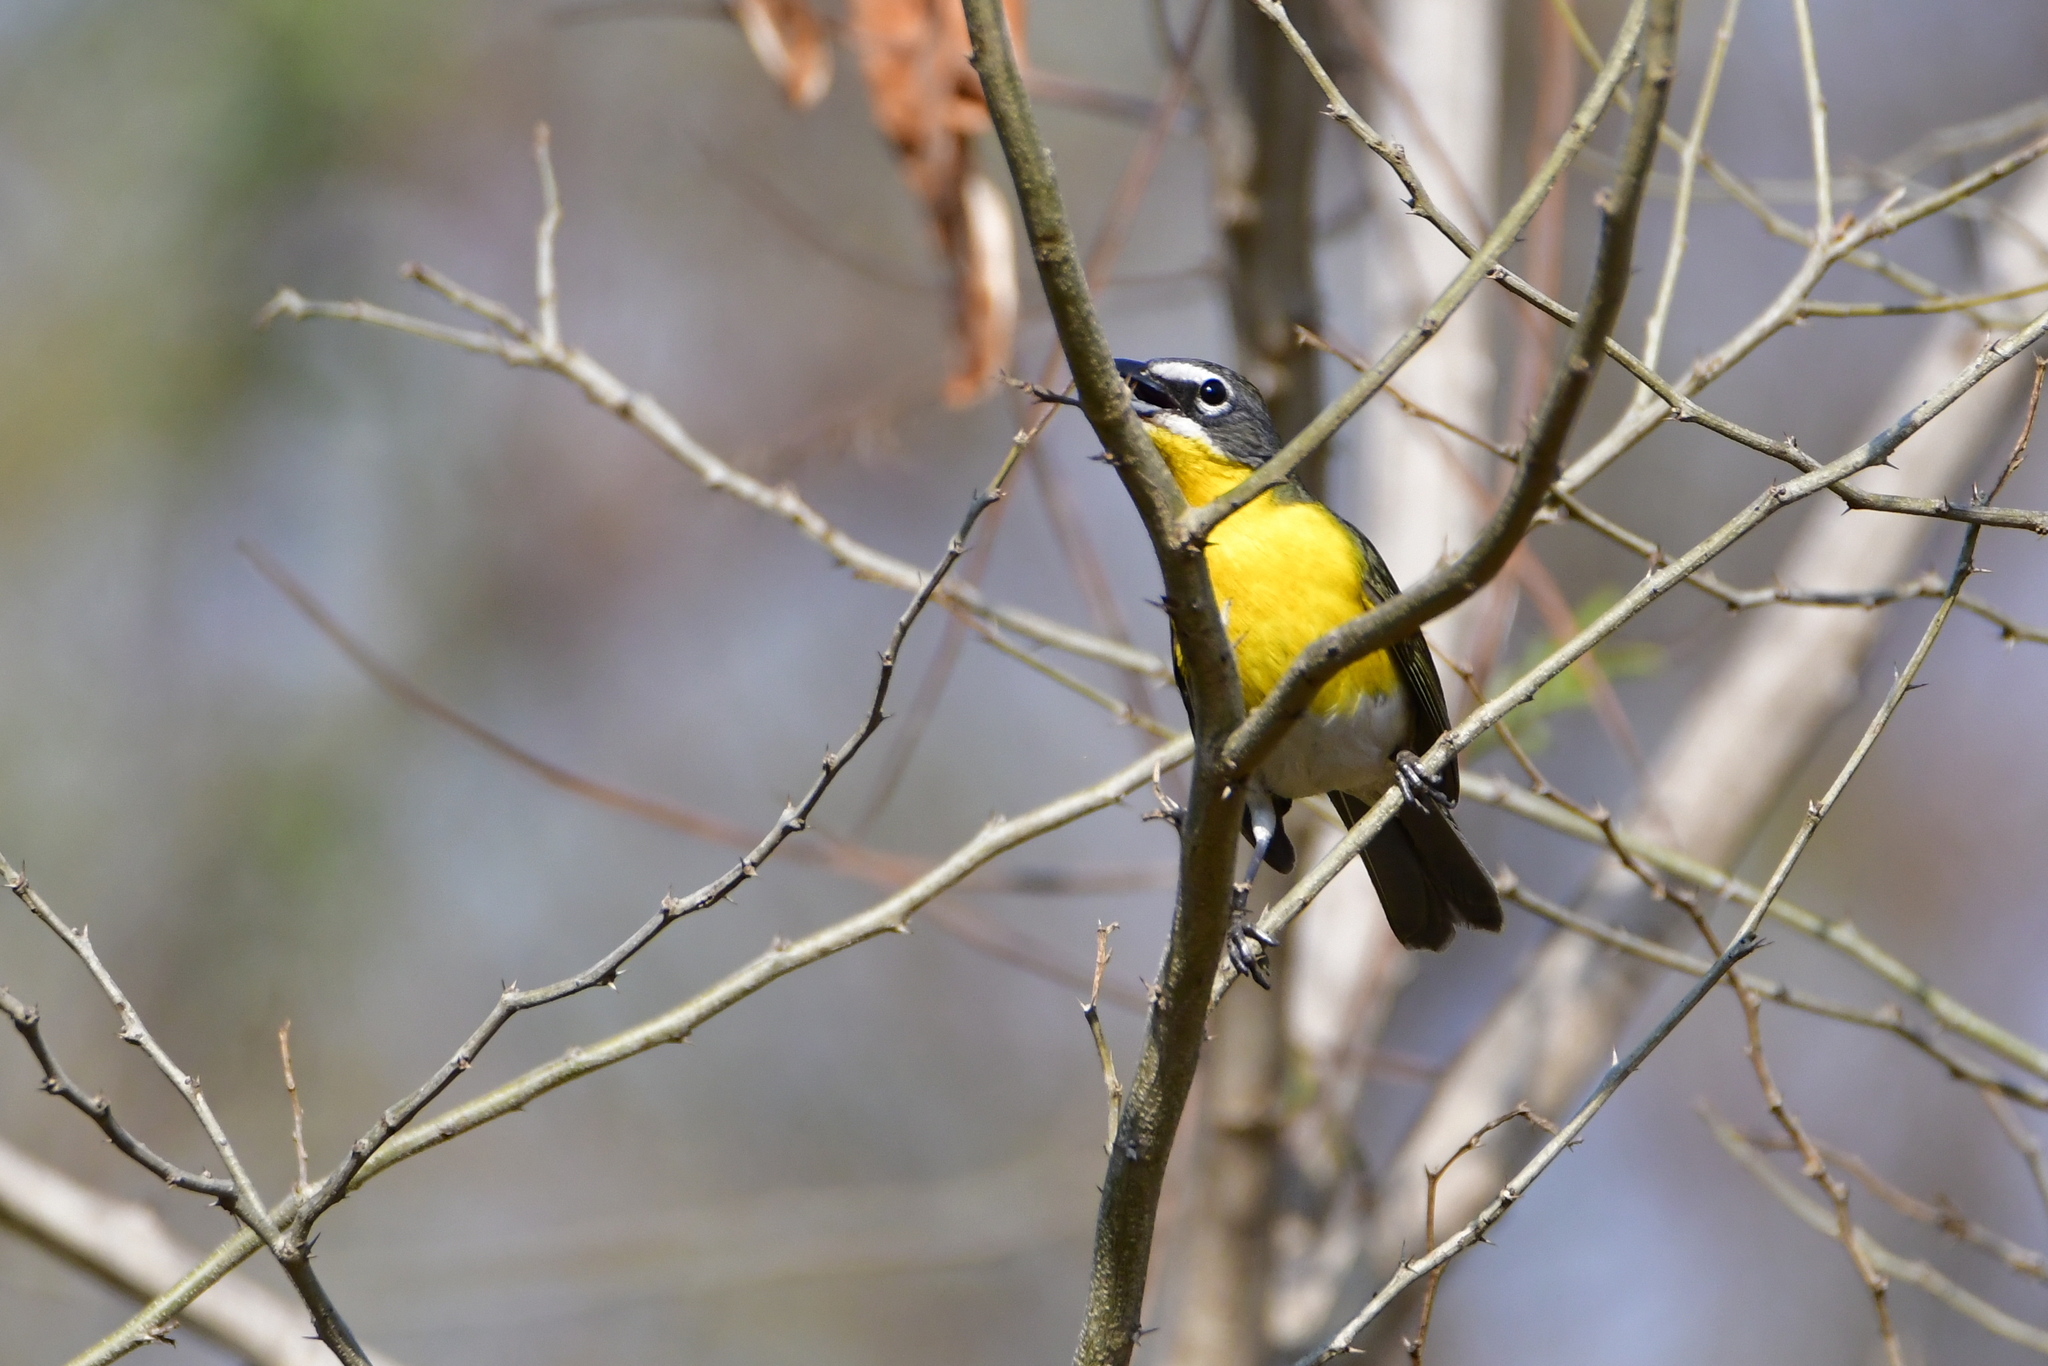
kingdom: Animalia
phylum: Chordata
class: Aves
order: Passeriformes
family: Parulidae
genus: Icteria
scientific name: Icteria virens
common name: Yellow-breasted chat
